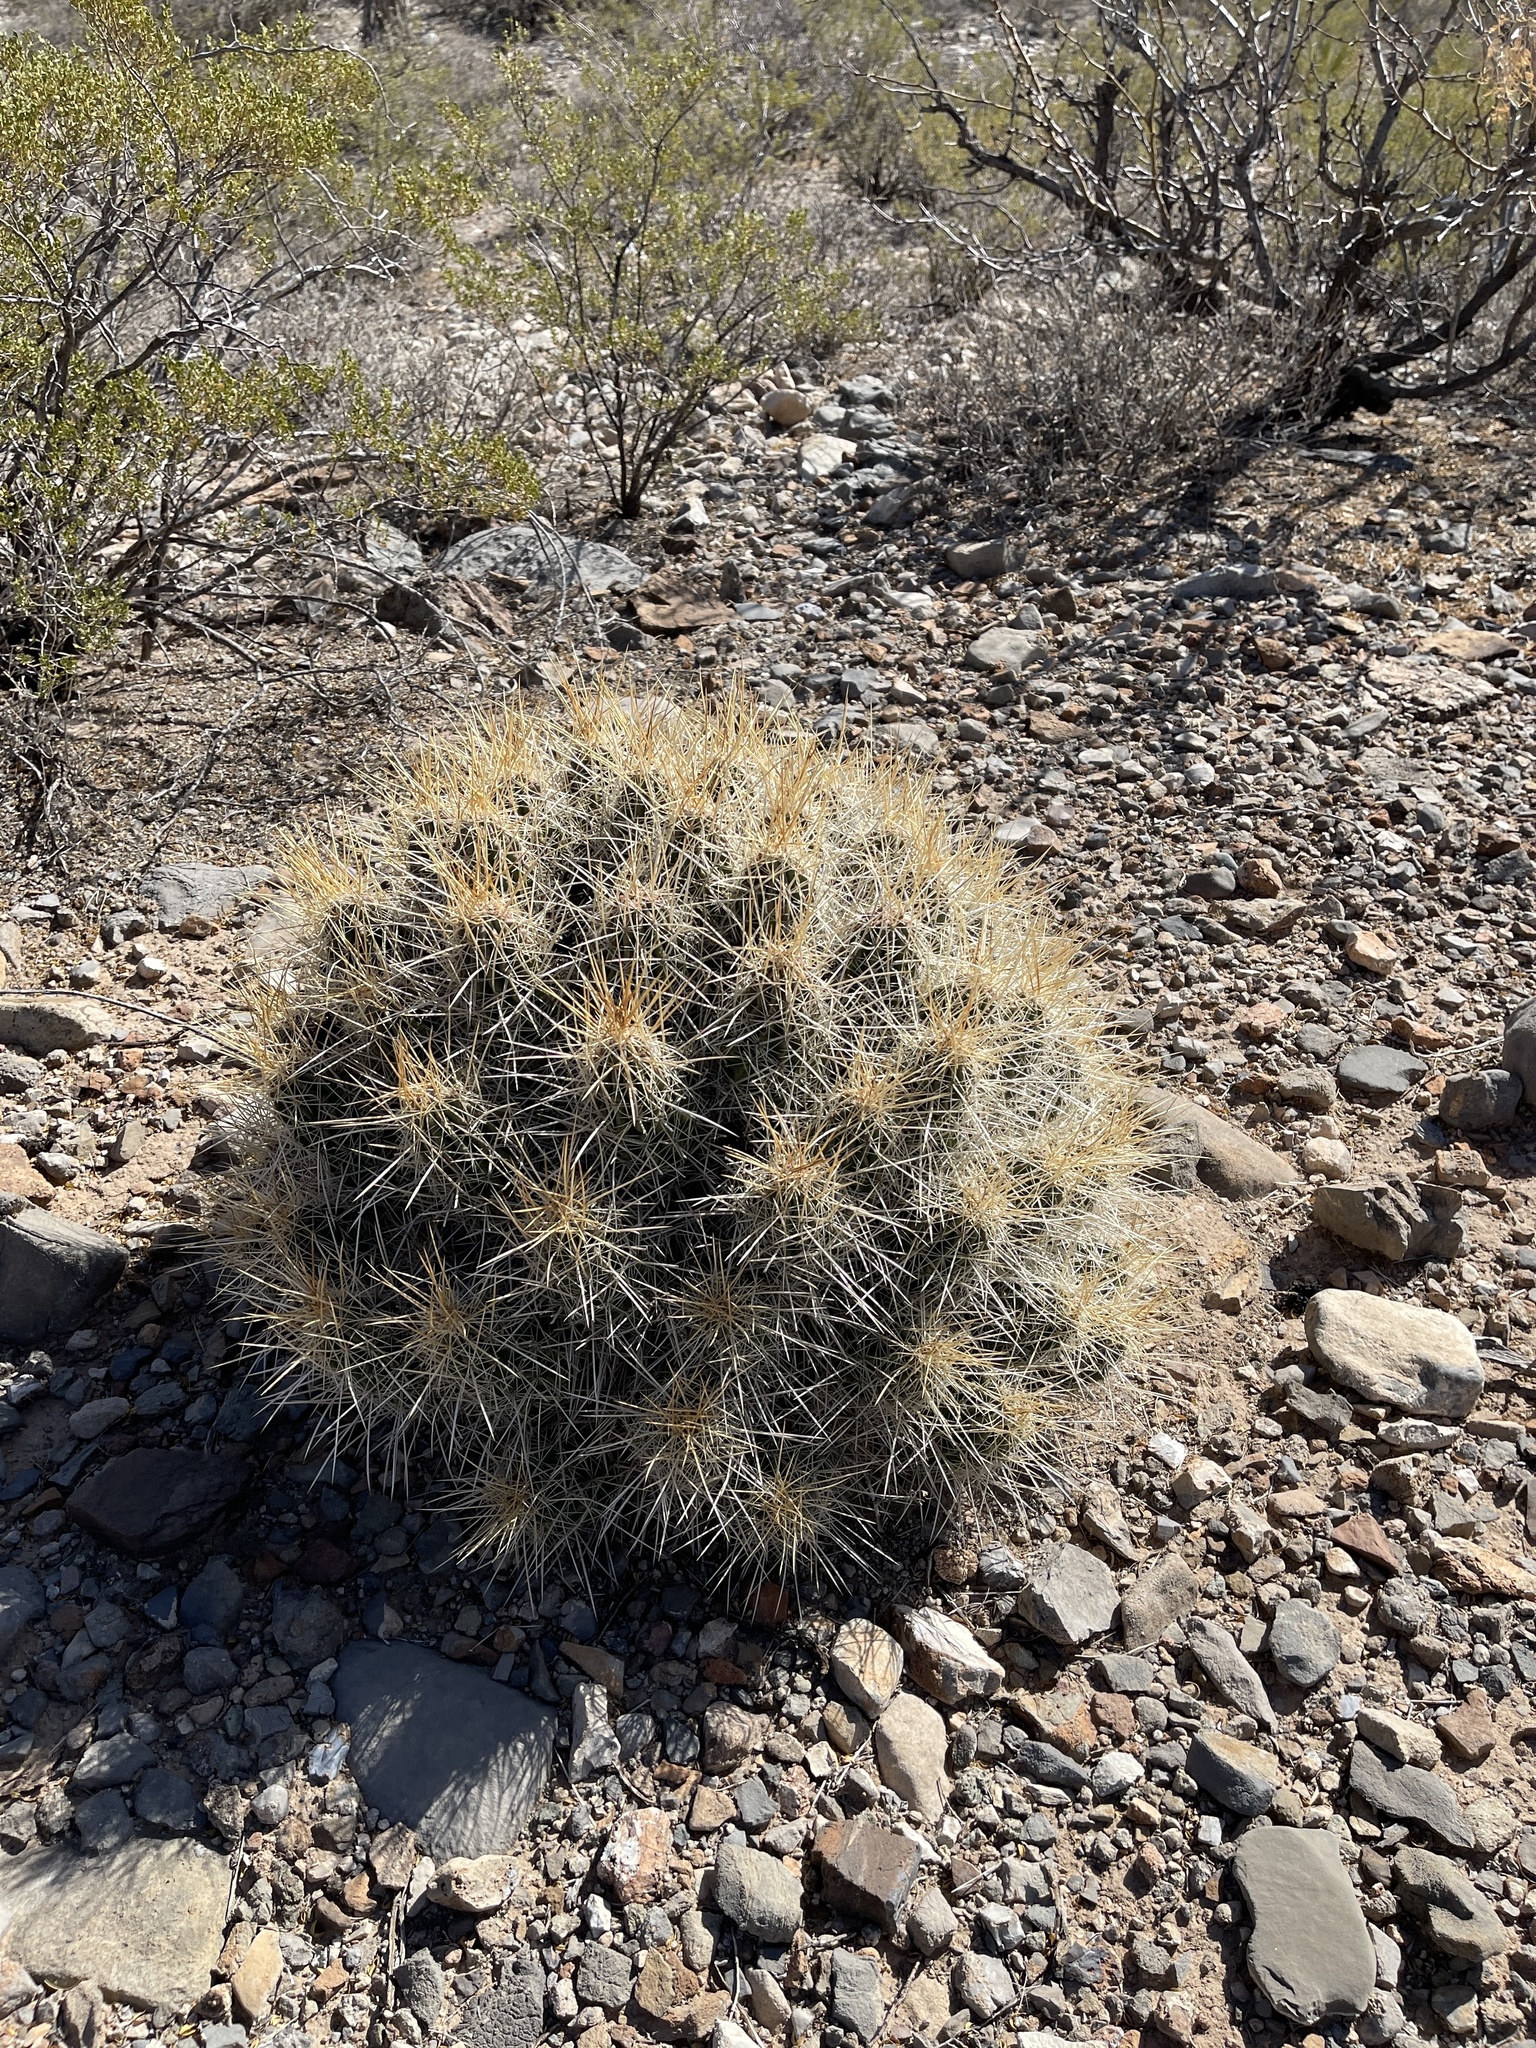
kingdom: Plantae
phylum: Tracheophyta
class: Magnoliopsida
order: Caryophyllales
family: Cactaceae
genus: Echinocereus
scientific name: Echinocereus stramineus
